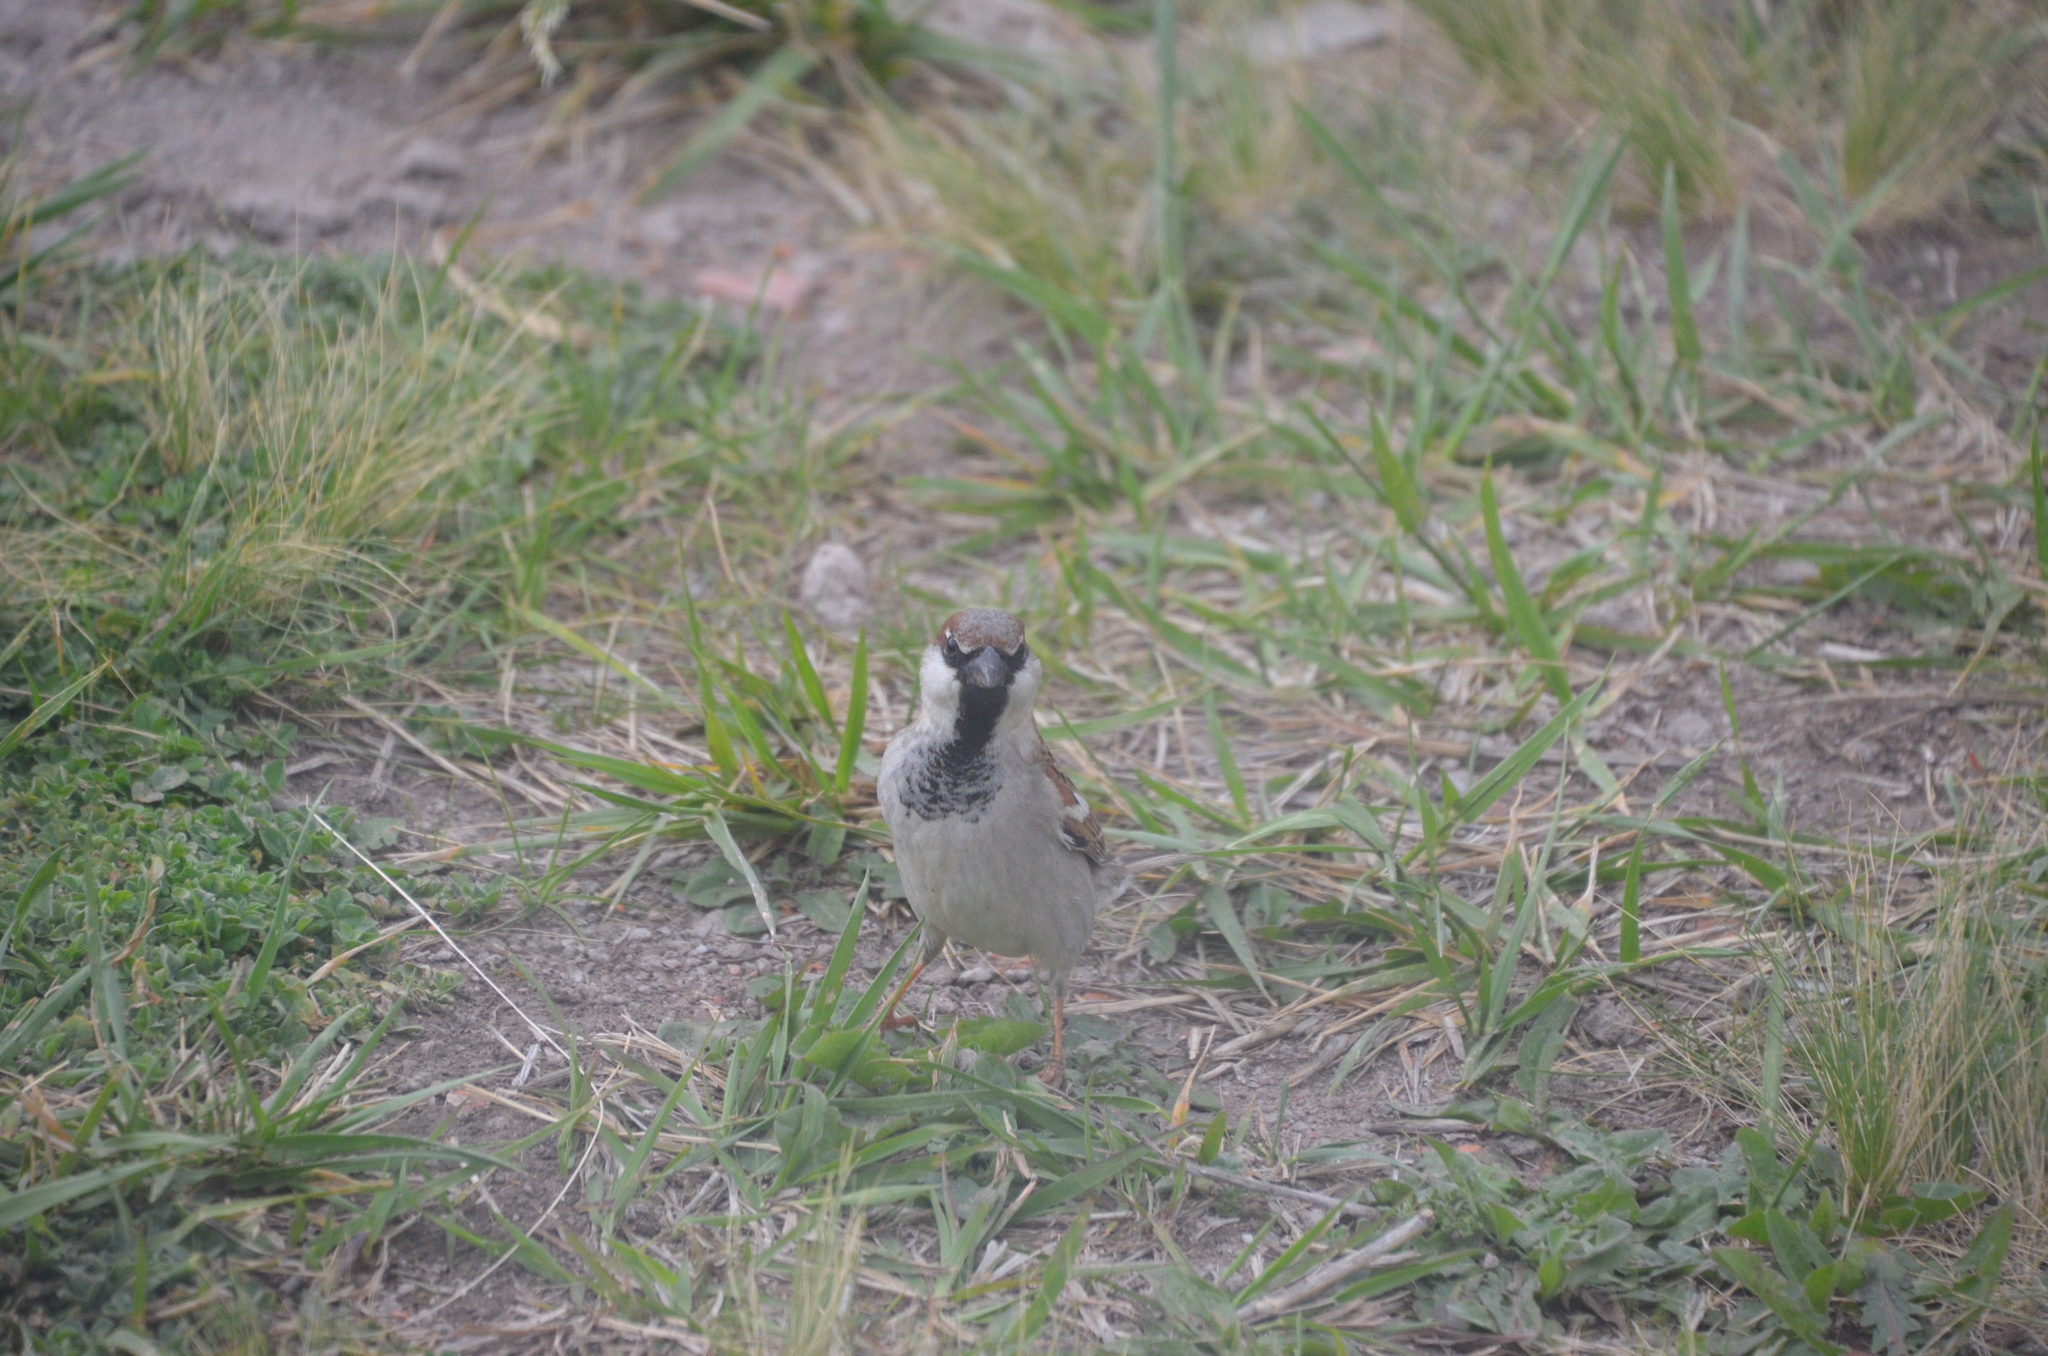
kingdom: Animalia
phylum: Chordata
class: Aves
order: Passeriformes
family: Passeridae
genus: Passer
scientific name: Passer domesticus
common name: House sparrow
